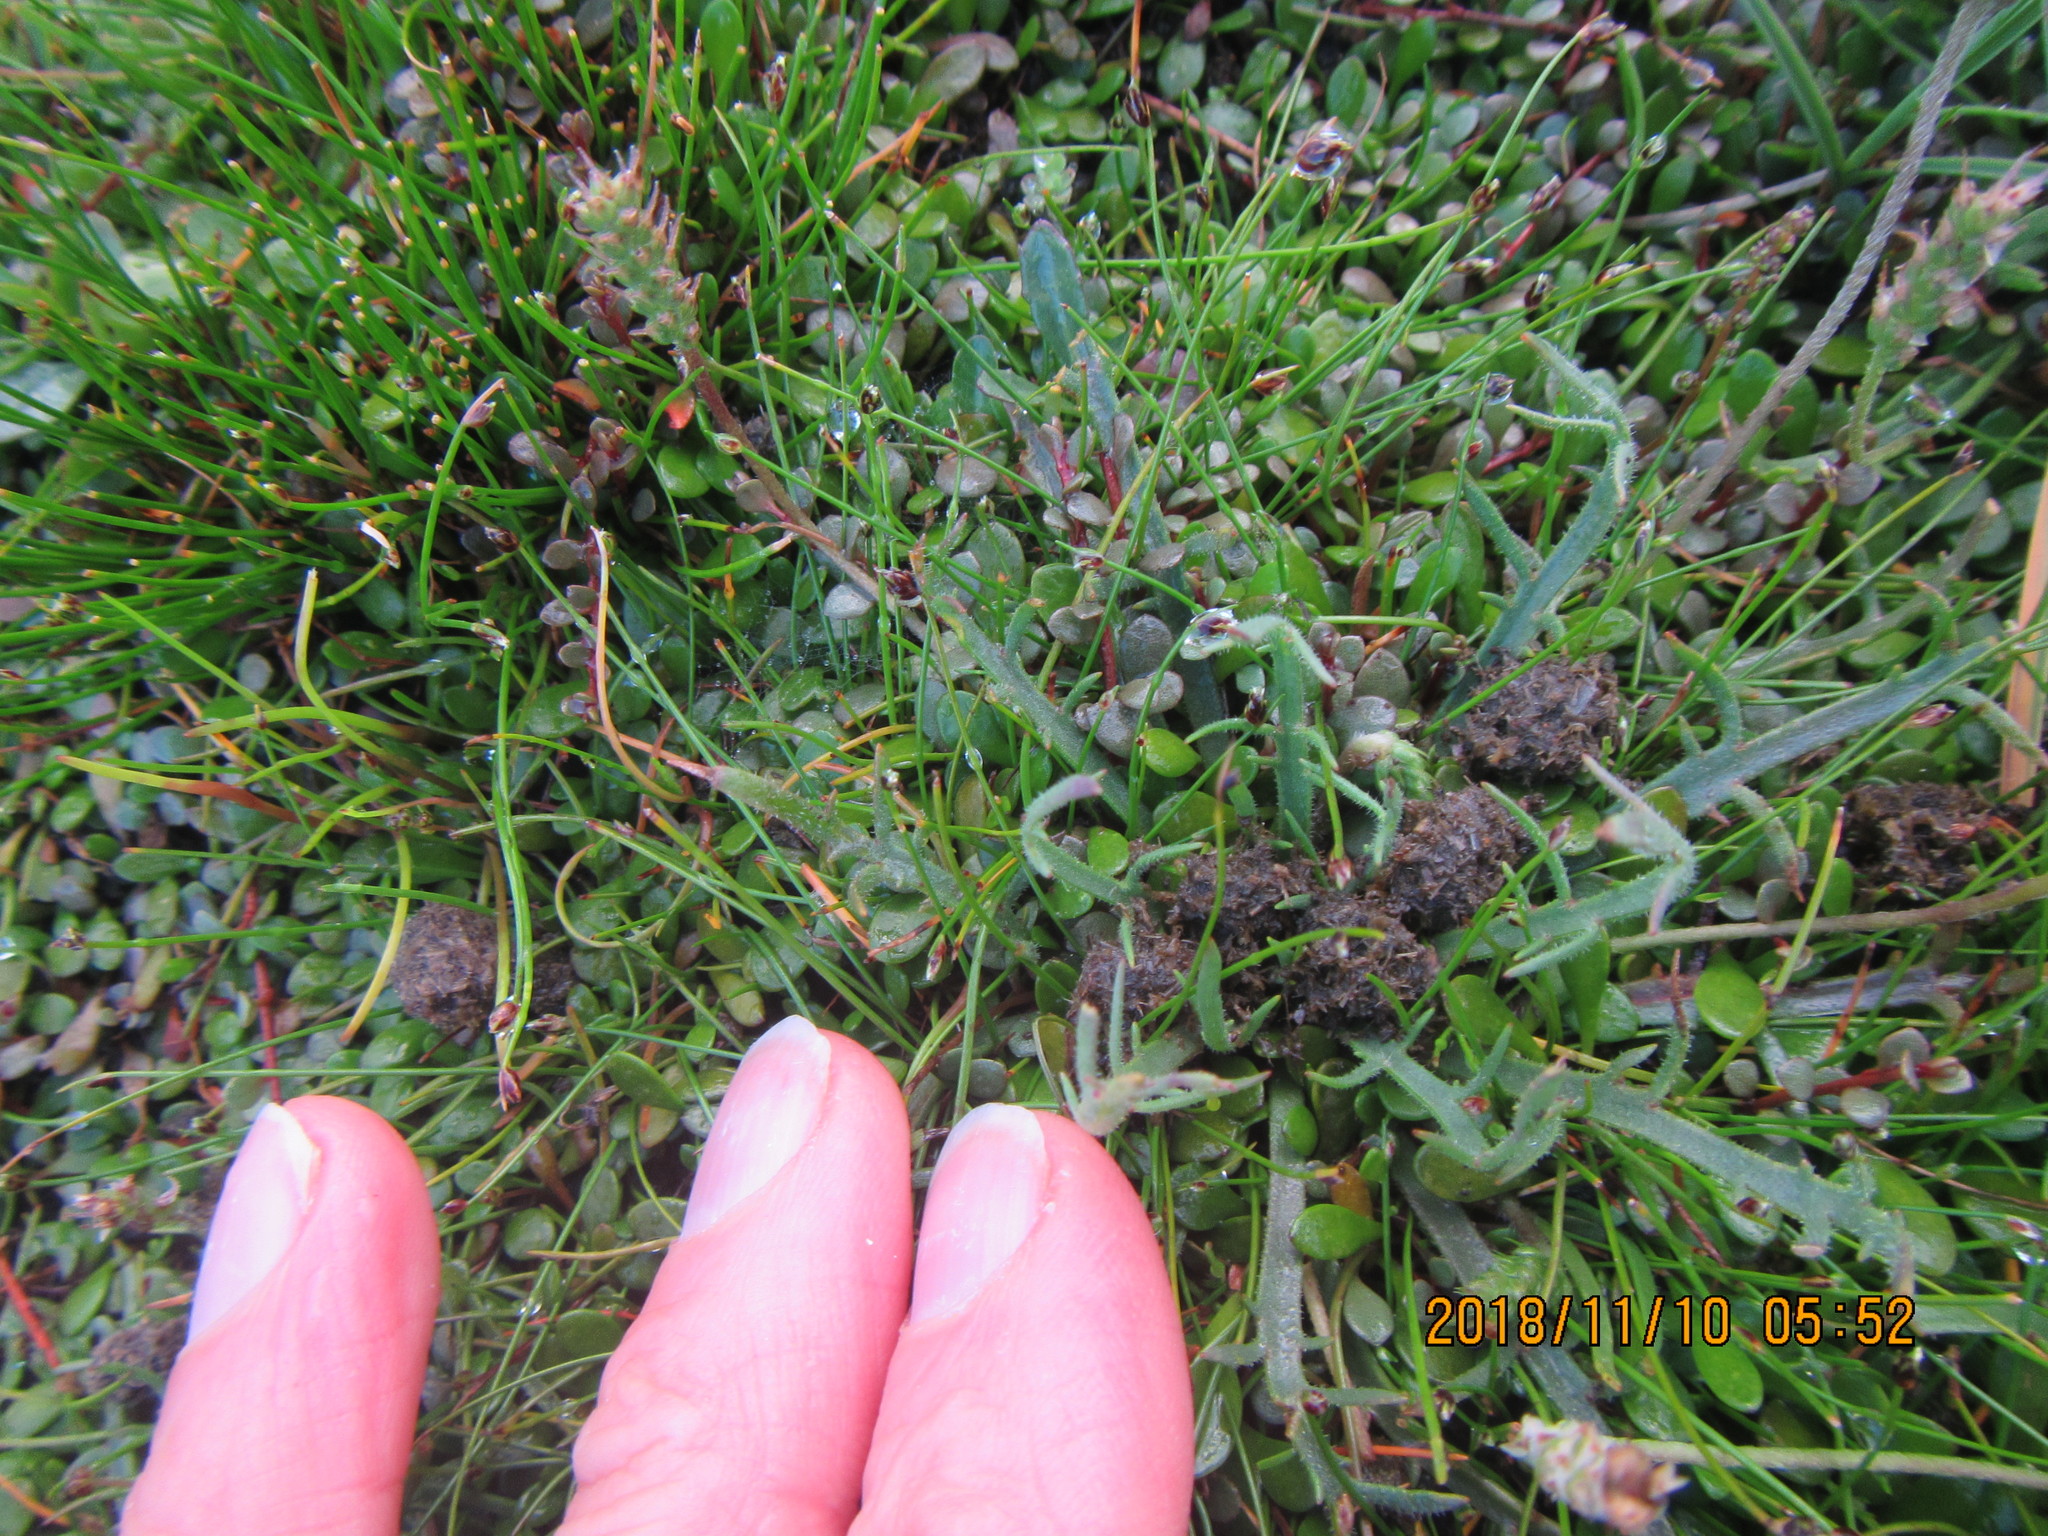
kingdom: Plantae
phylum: Tracheophyta
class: Magnoliopsida
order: Lamiales
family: Plantaginaceae
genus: Plantago
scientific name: Plantago coronopus
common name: Buck's-horn plantain
